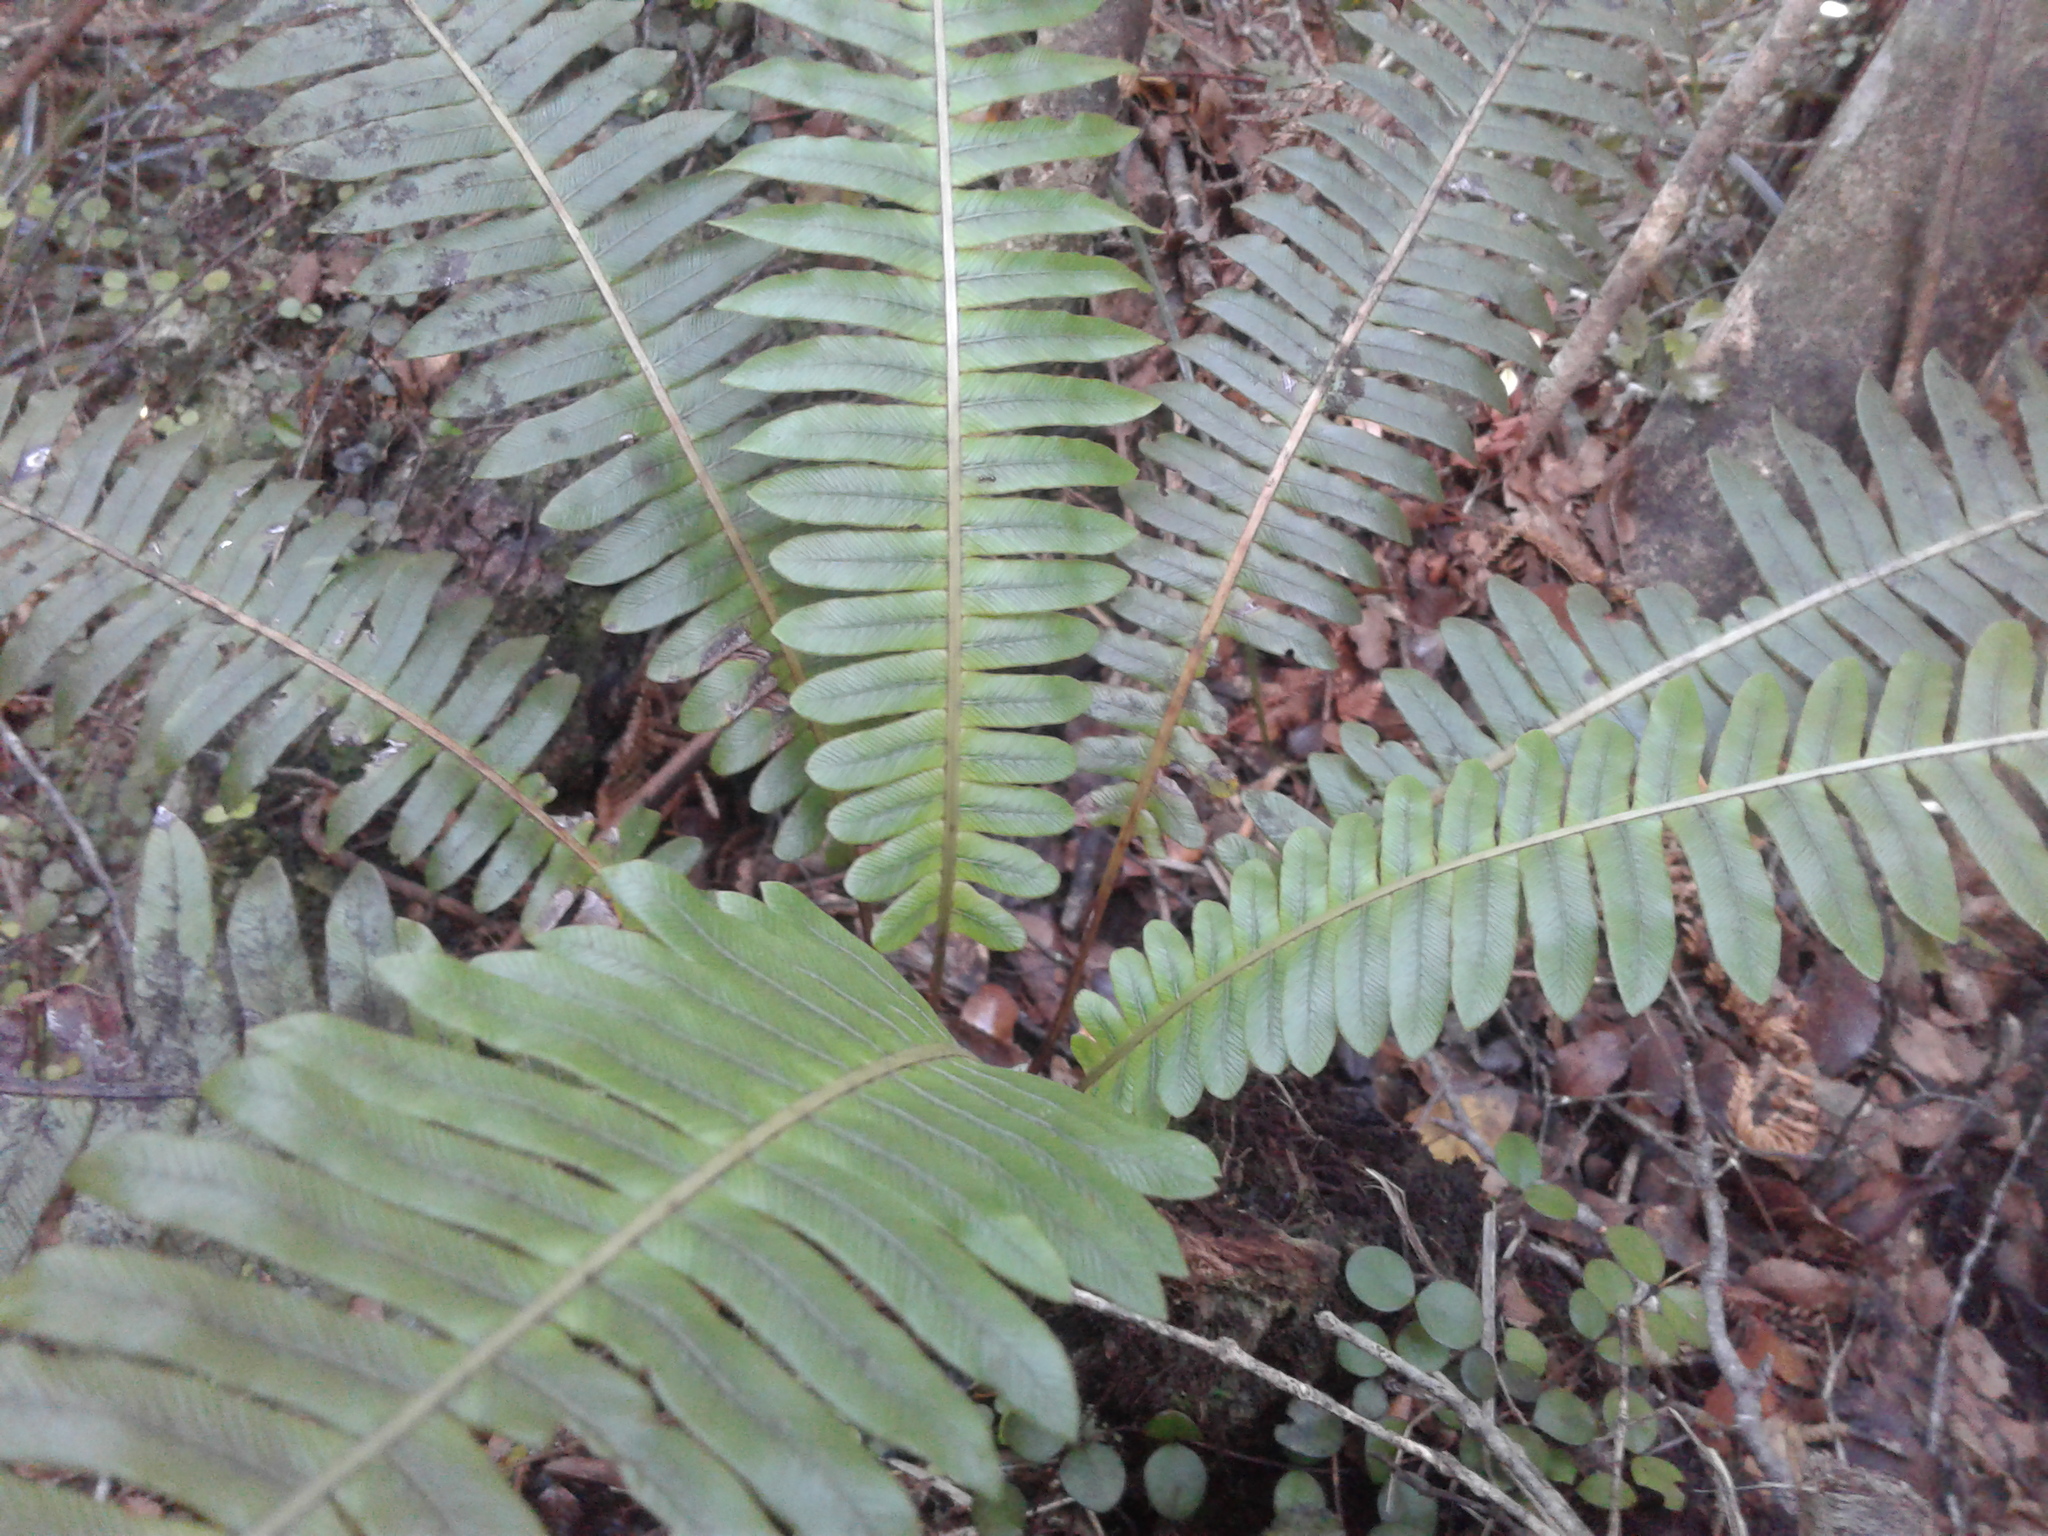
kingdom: Plantae
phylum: Tracheophyta
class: Polypodiopsida
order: Polypodiales
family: Blechnaceae
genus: Lomaria
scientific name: Lomaria discolor
